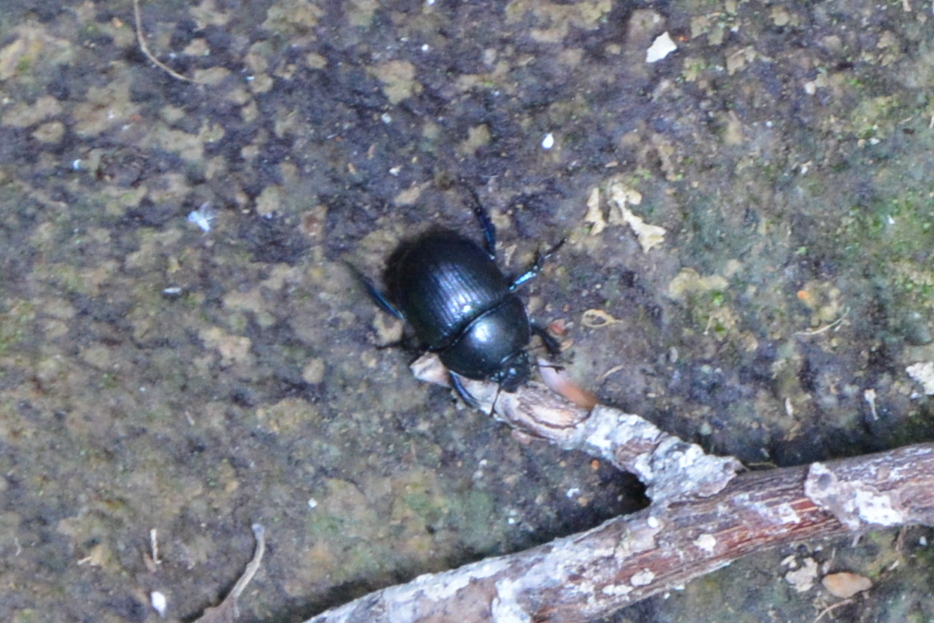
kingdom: Animalia
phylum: Arthropoda
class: Insecta
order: Coleoptera
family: Geotrupidae
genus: Anoplotrupes
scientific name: Anoplotrupes stercorosus
